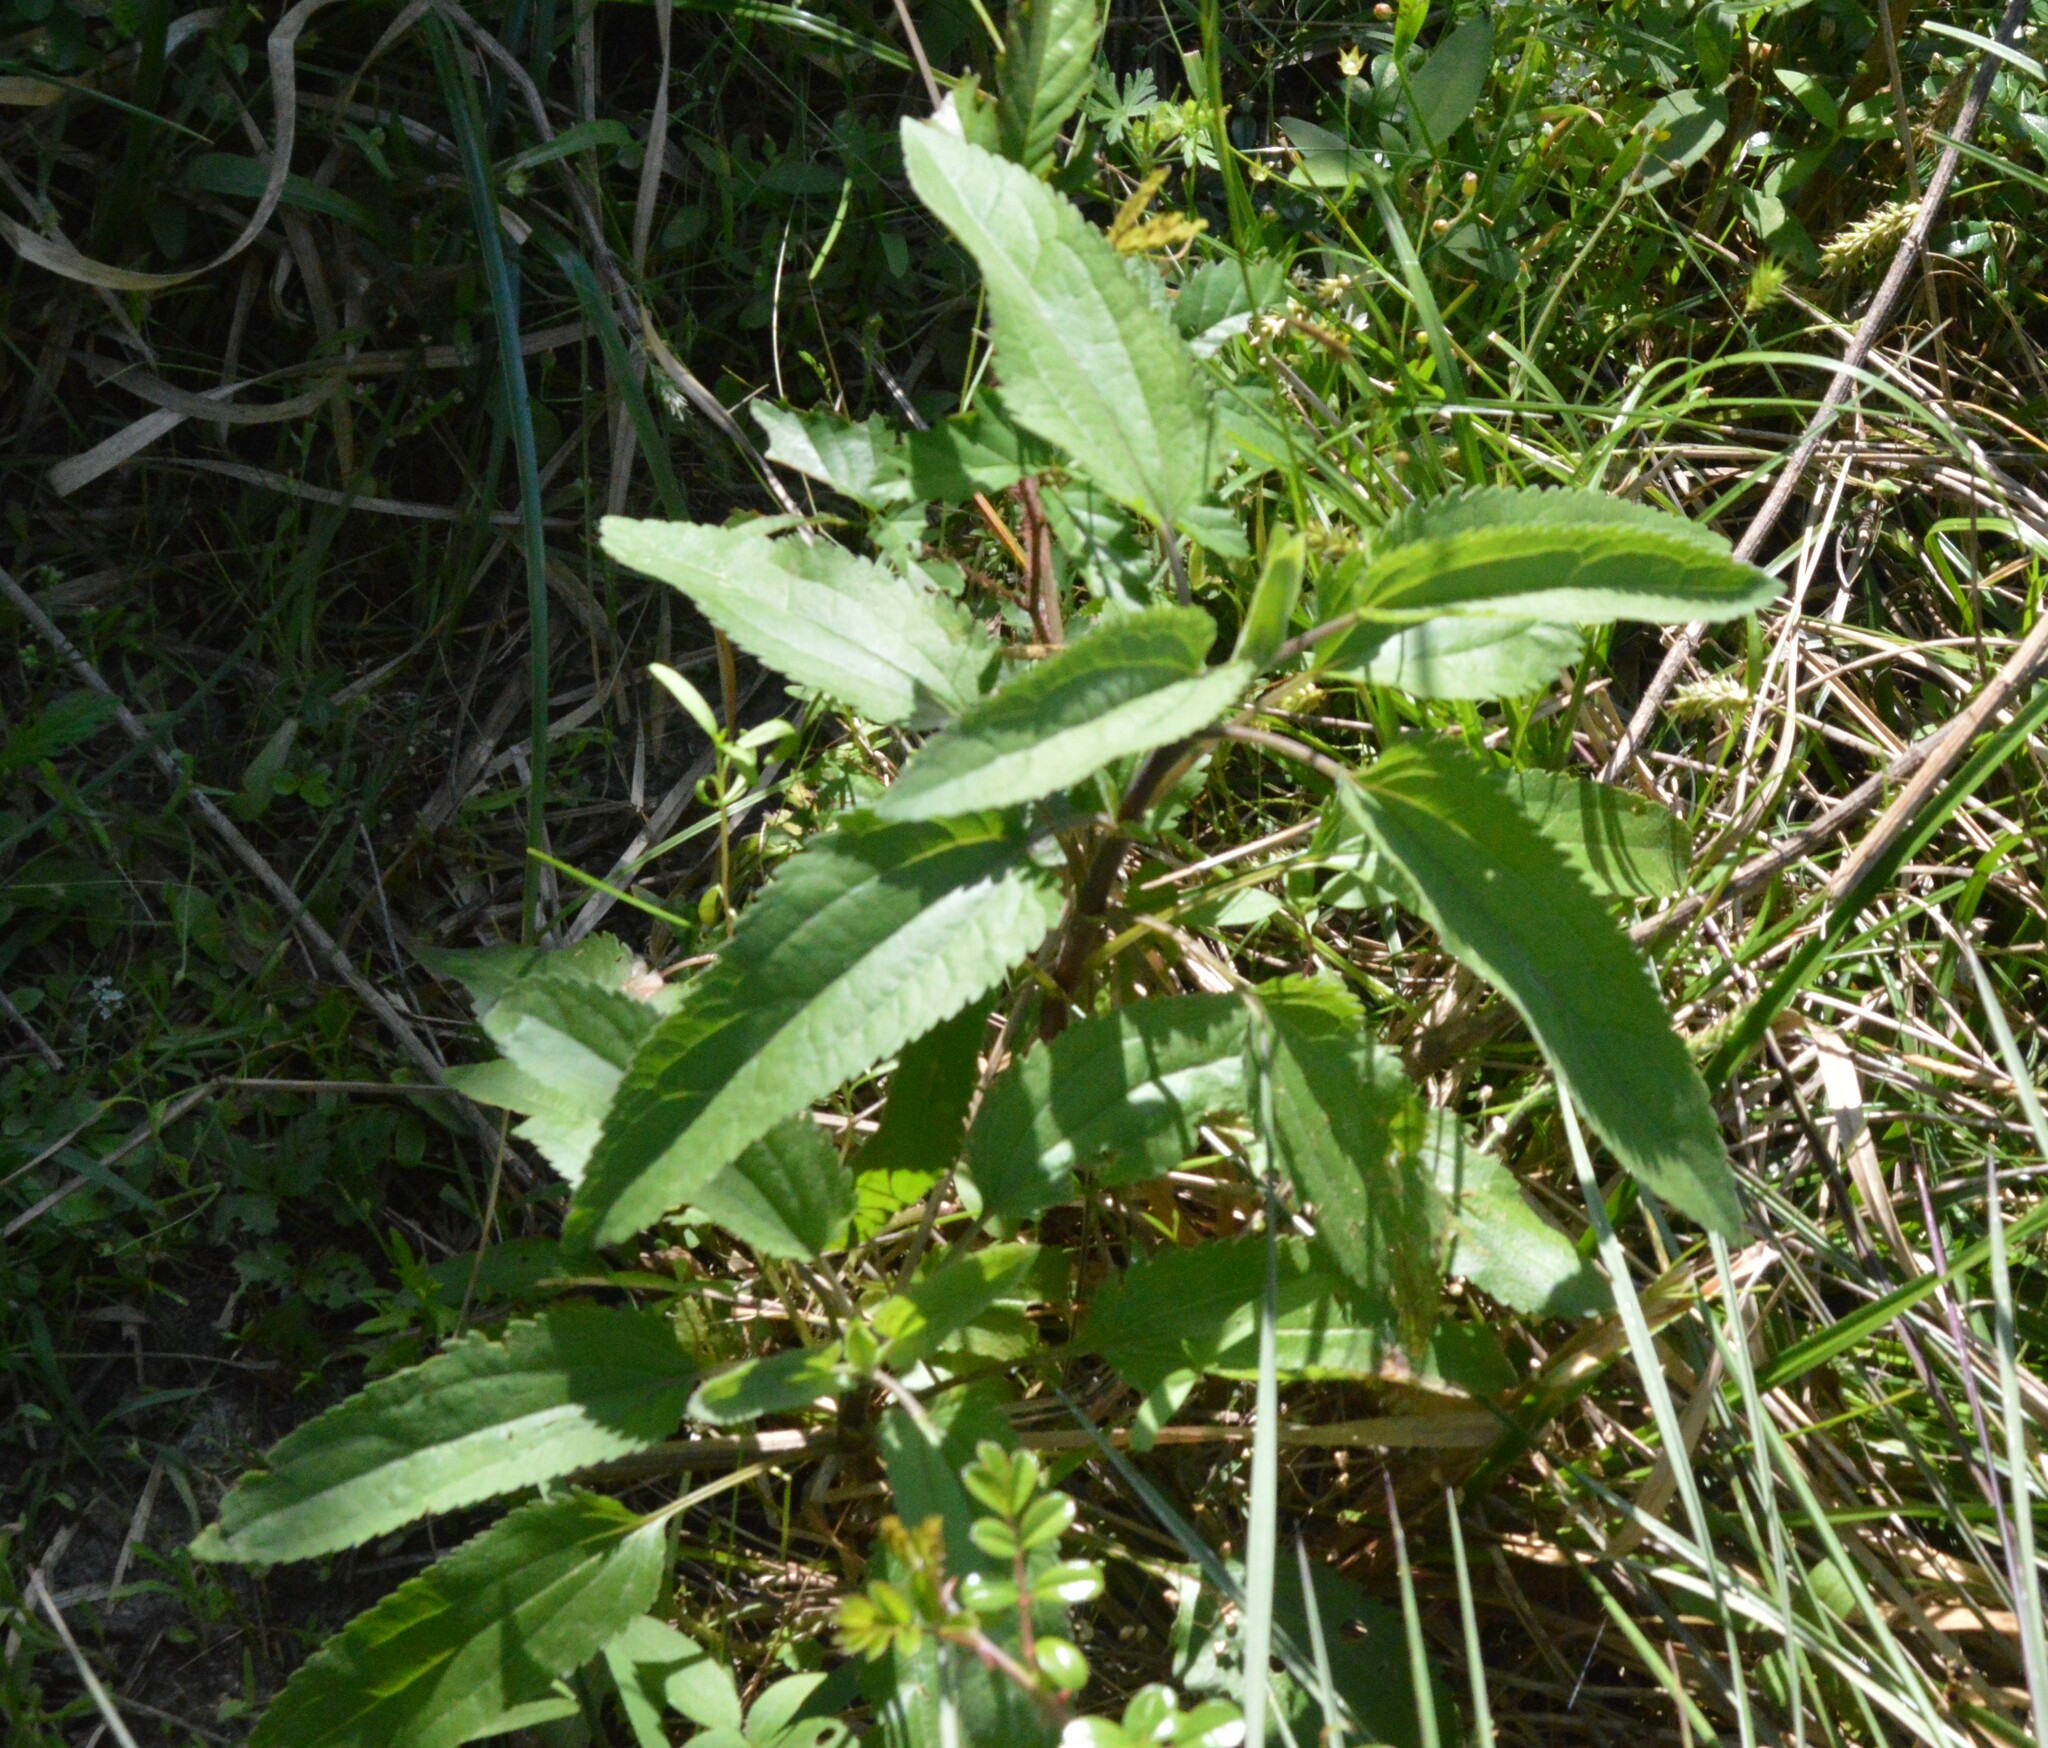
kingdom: Plantae
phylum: Tracheophyta
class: Magnoliopsida
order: Asterales
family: Asteraceae
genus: Eupatorium
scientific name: Eupatorium serotinum
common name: Late boneset
